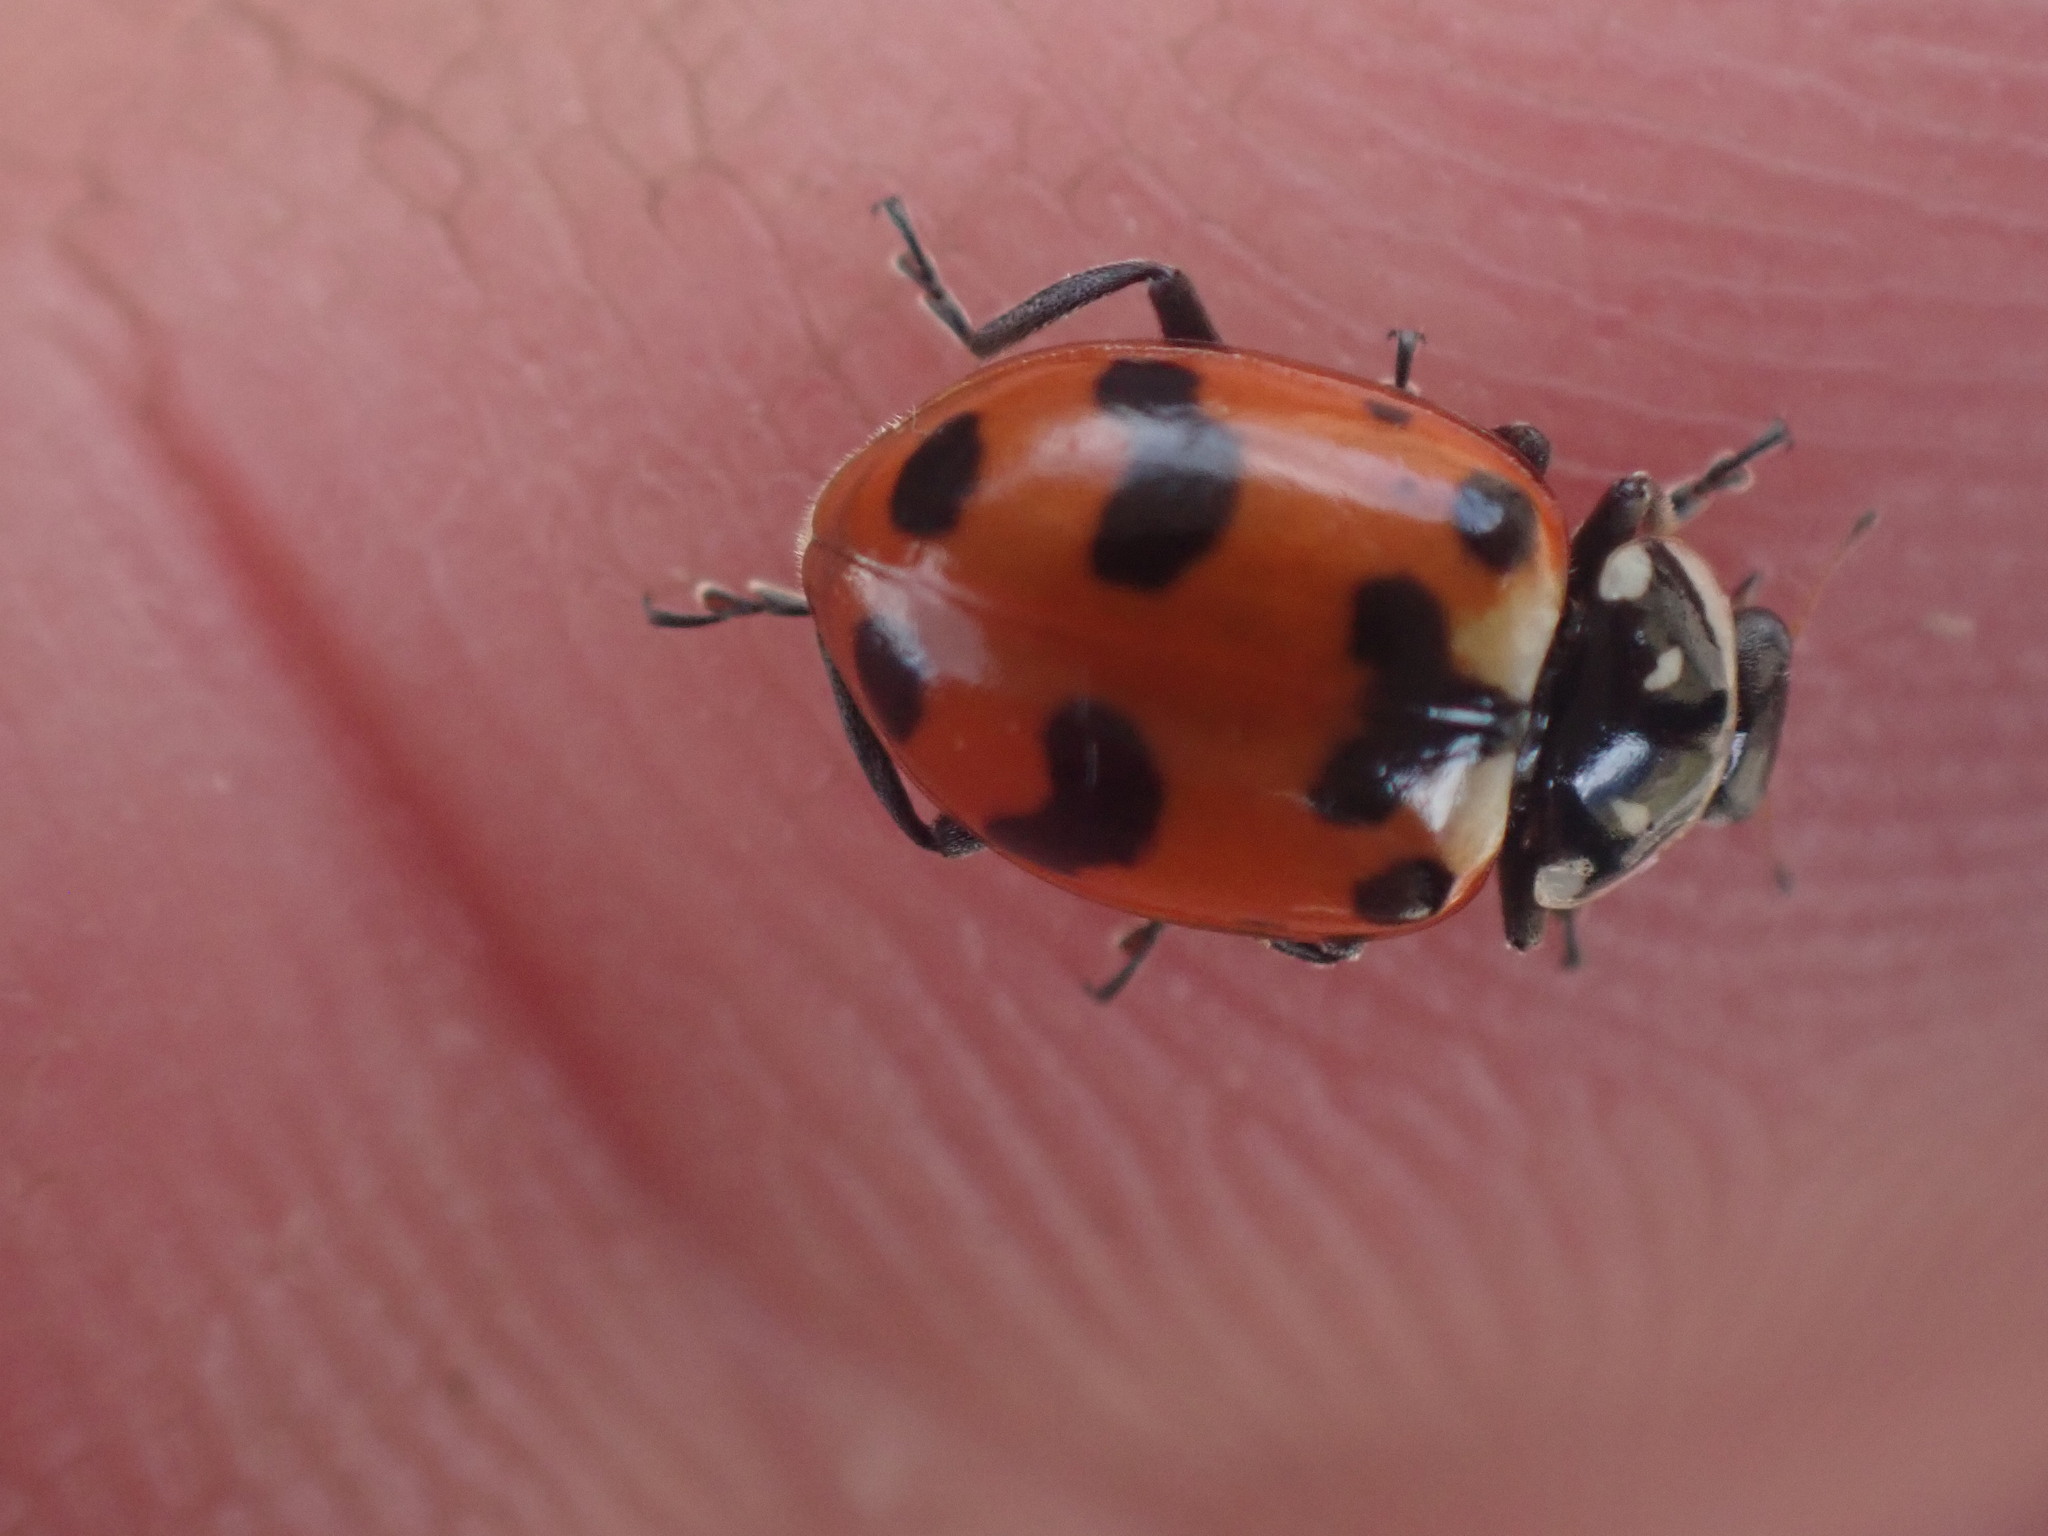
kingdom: Animalia
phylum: Arthropoda
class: Insecta
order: Coleoptera
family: Coccinellidae
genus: Hippodamia
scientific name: Hippodamia caseyi
